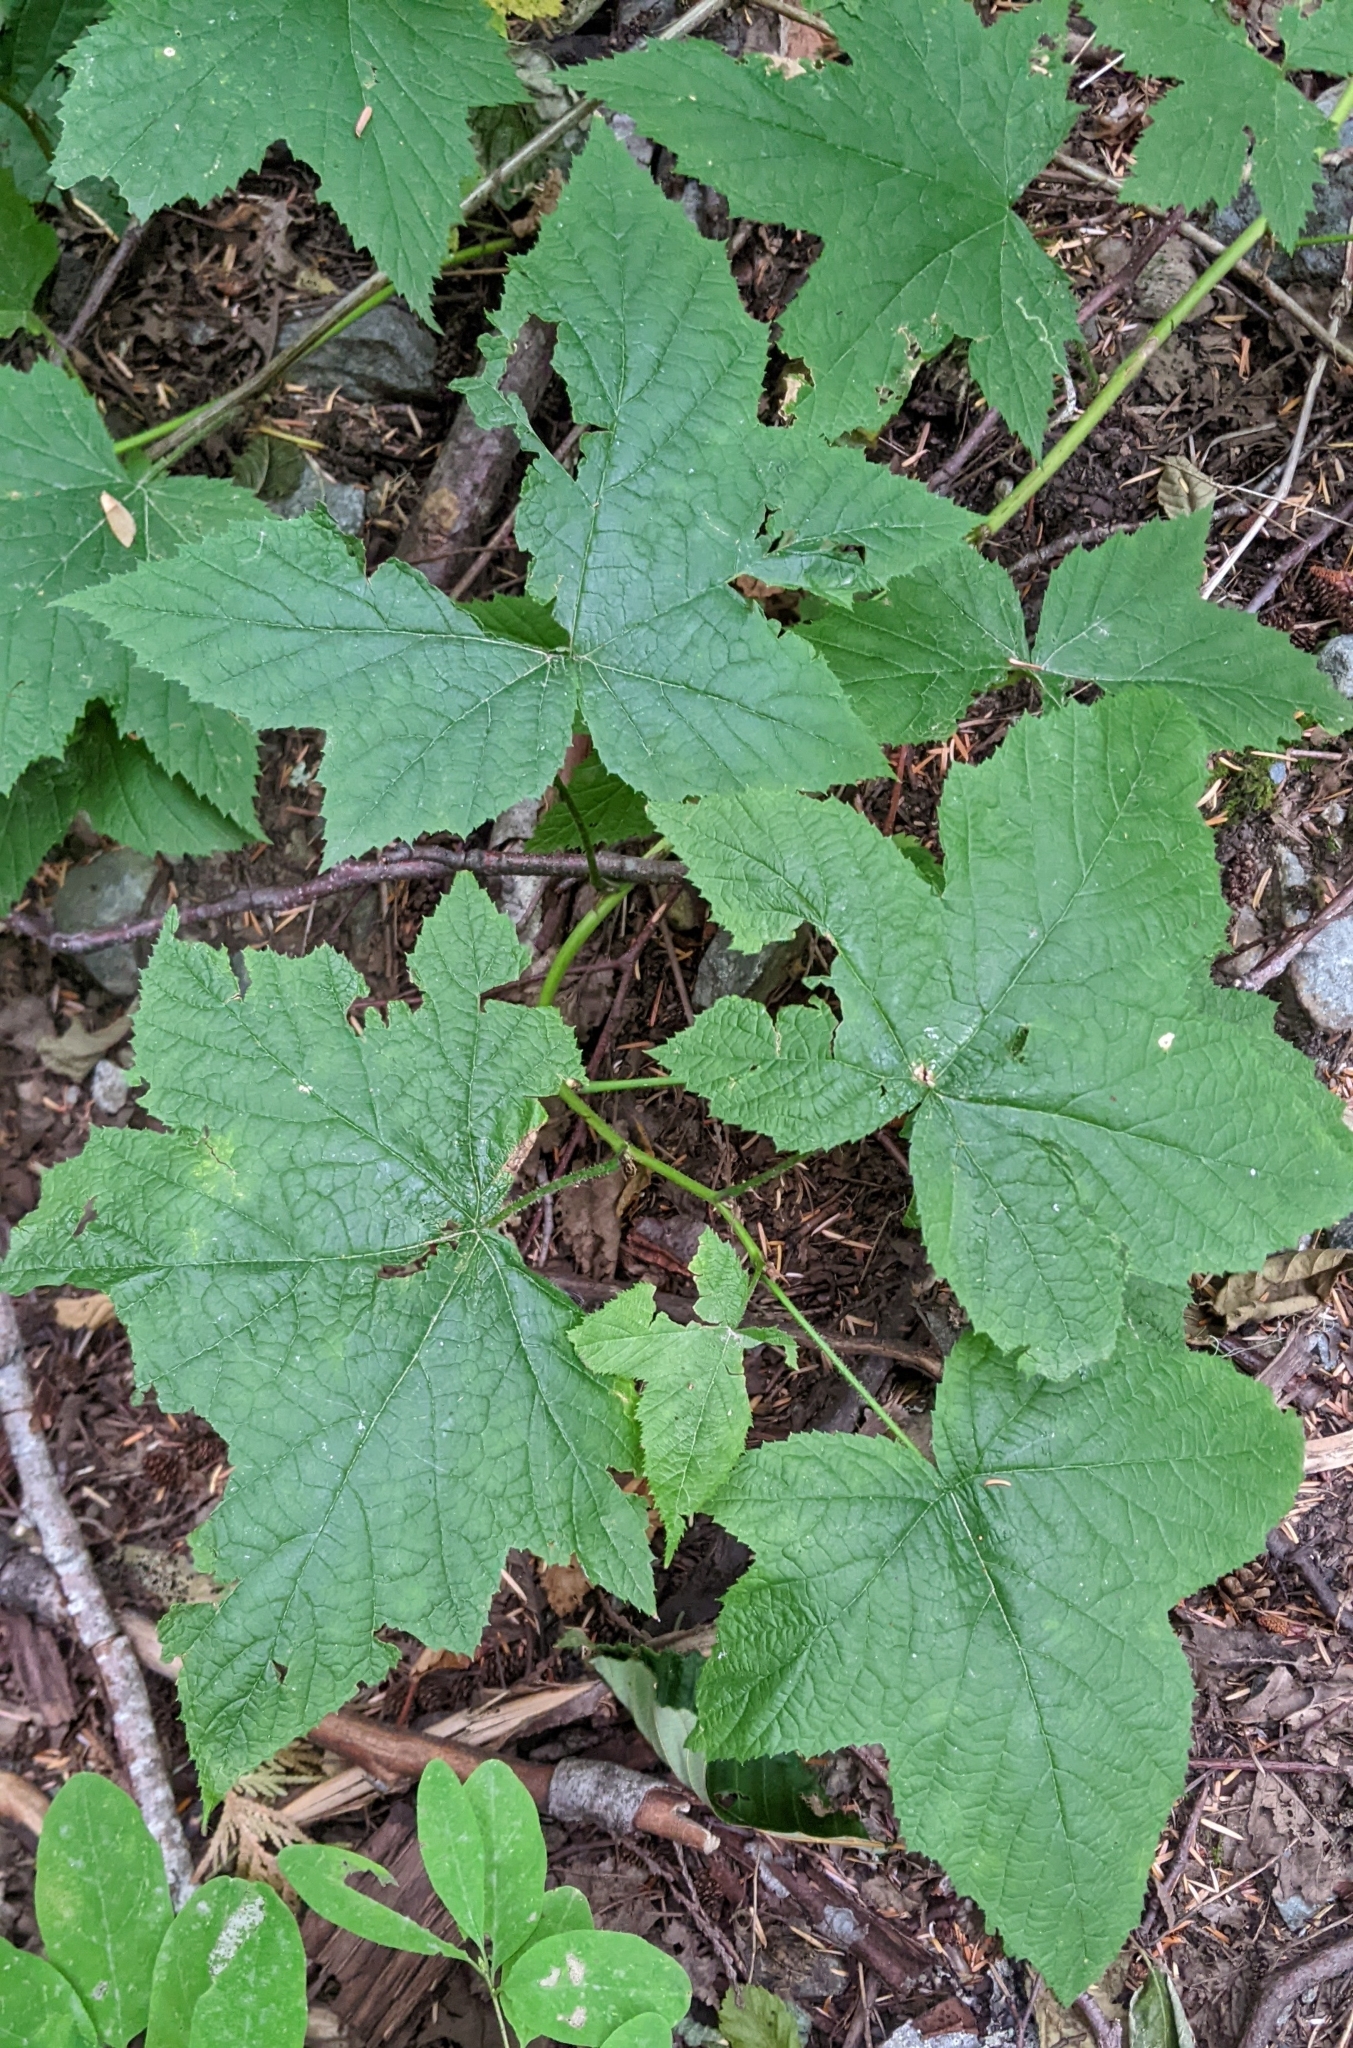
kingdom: Plantae
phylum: Tracheophyta
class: Magnoliopsida
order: Rosales
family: Rosaceae
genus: Rubus
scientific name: Rubus parviflorus
